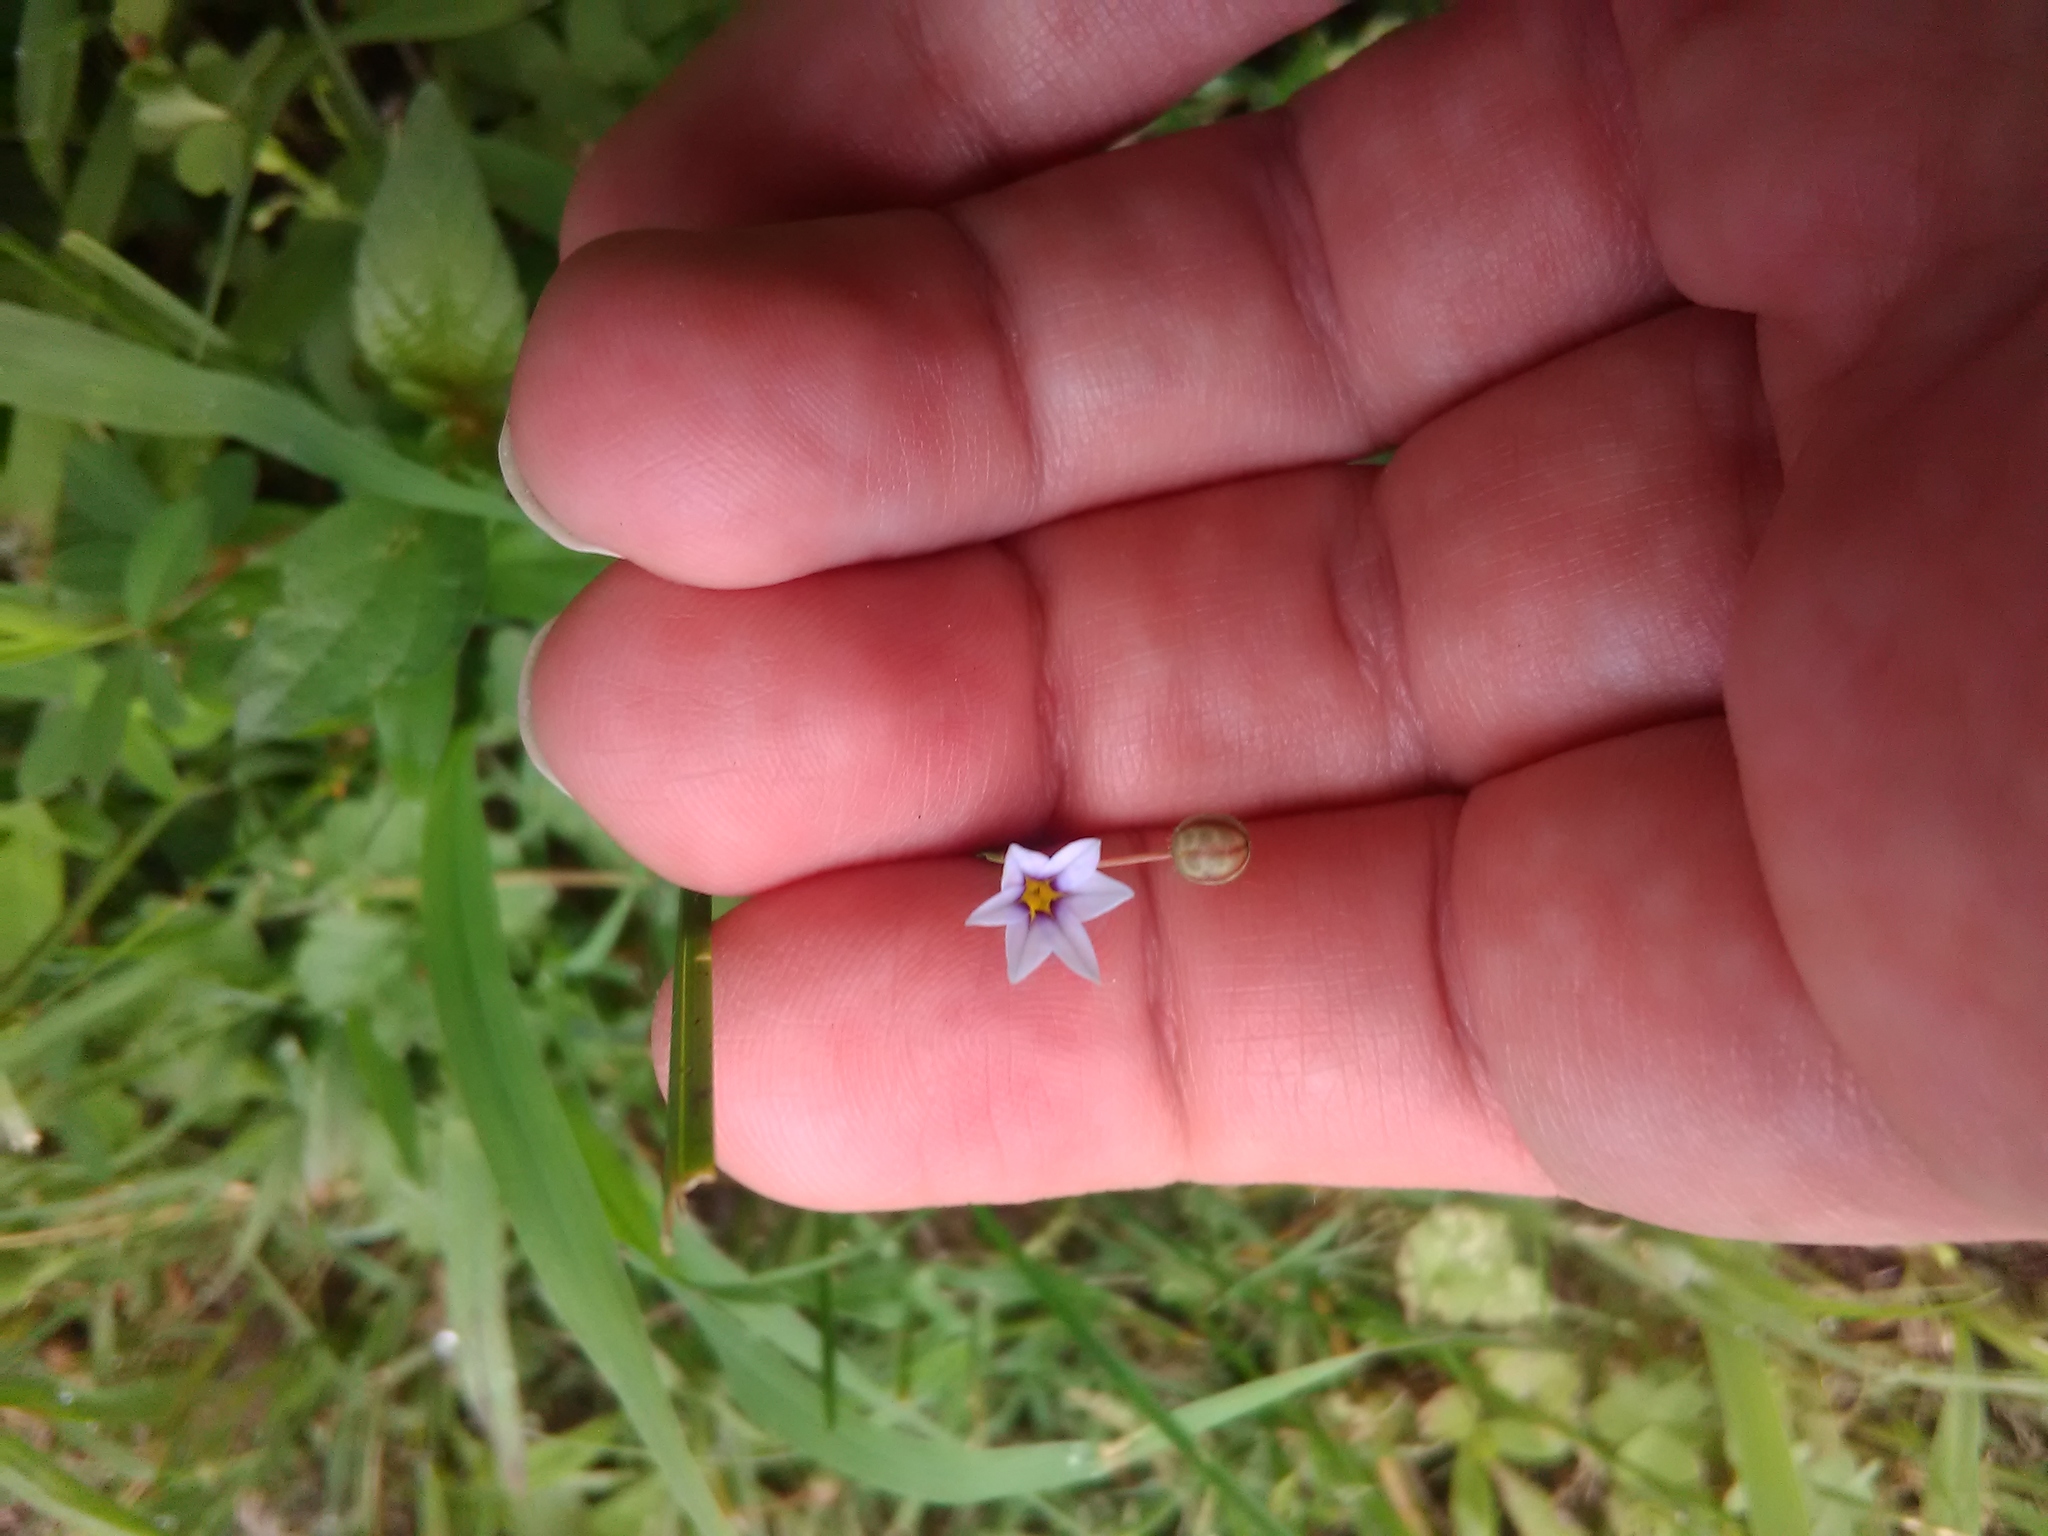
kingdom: Plantae
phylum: Tracheophyta
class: Liliopsida
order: Asparagales
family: Iridaceae
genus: Sisyrinchium
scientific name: Sisyrinchium micranthum
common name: Bermuda pigroot
